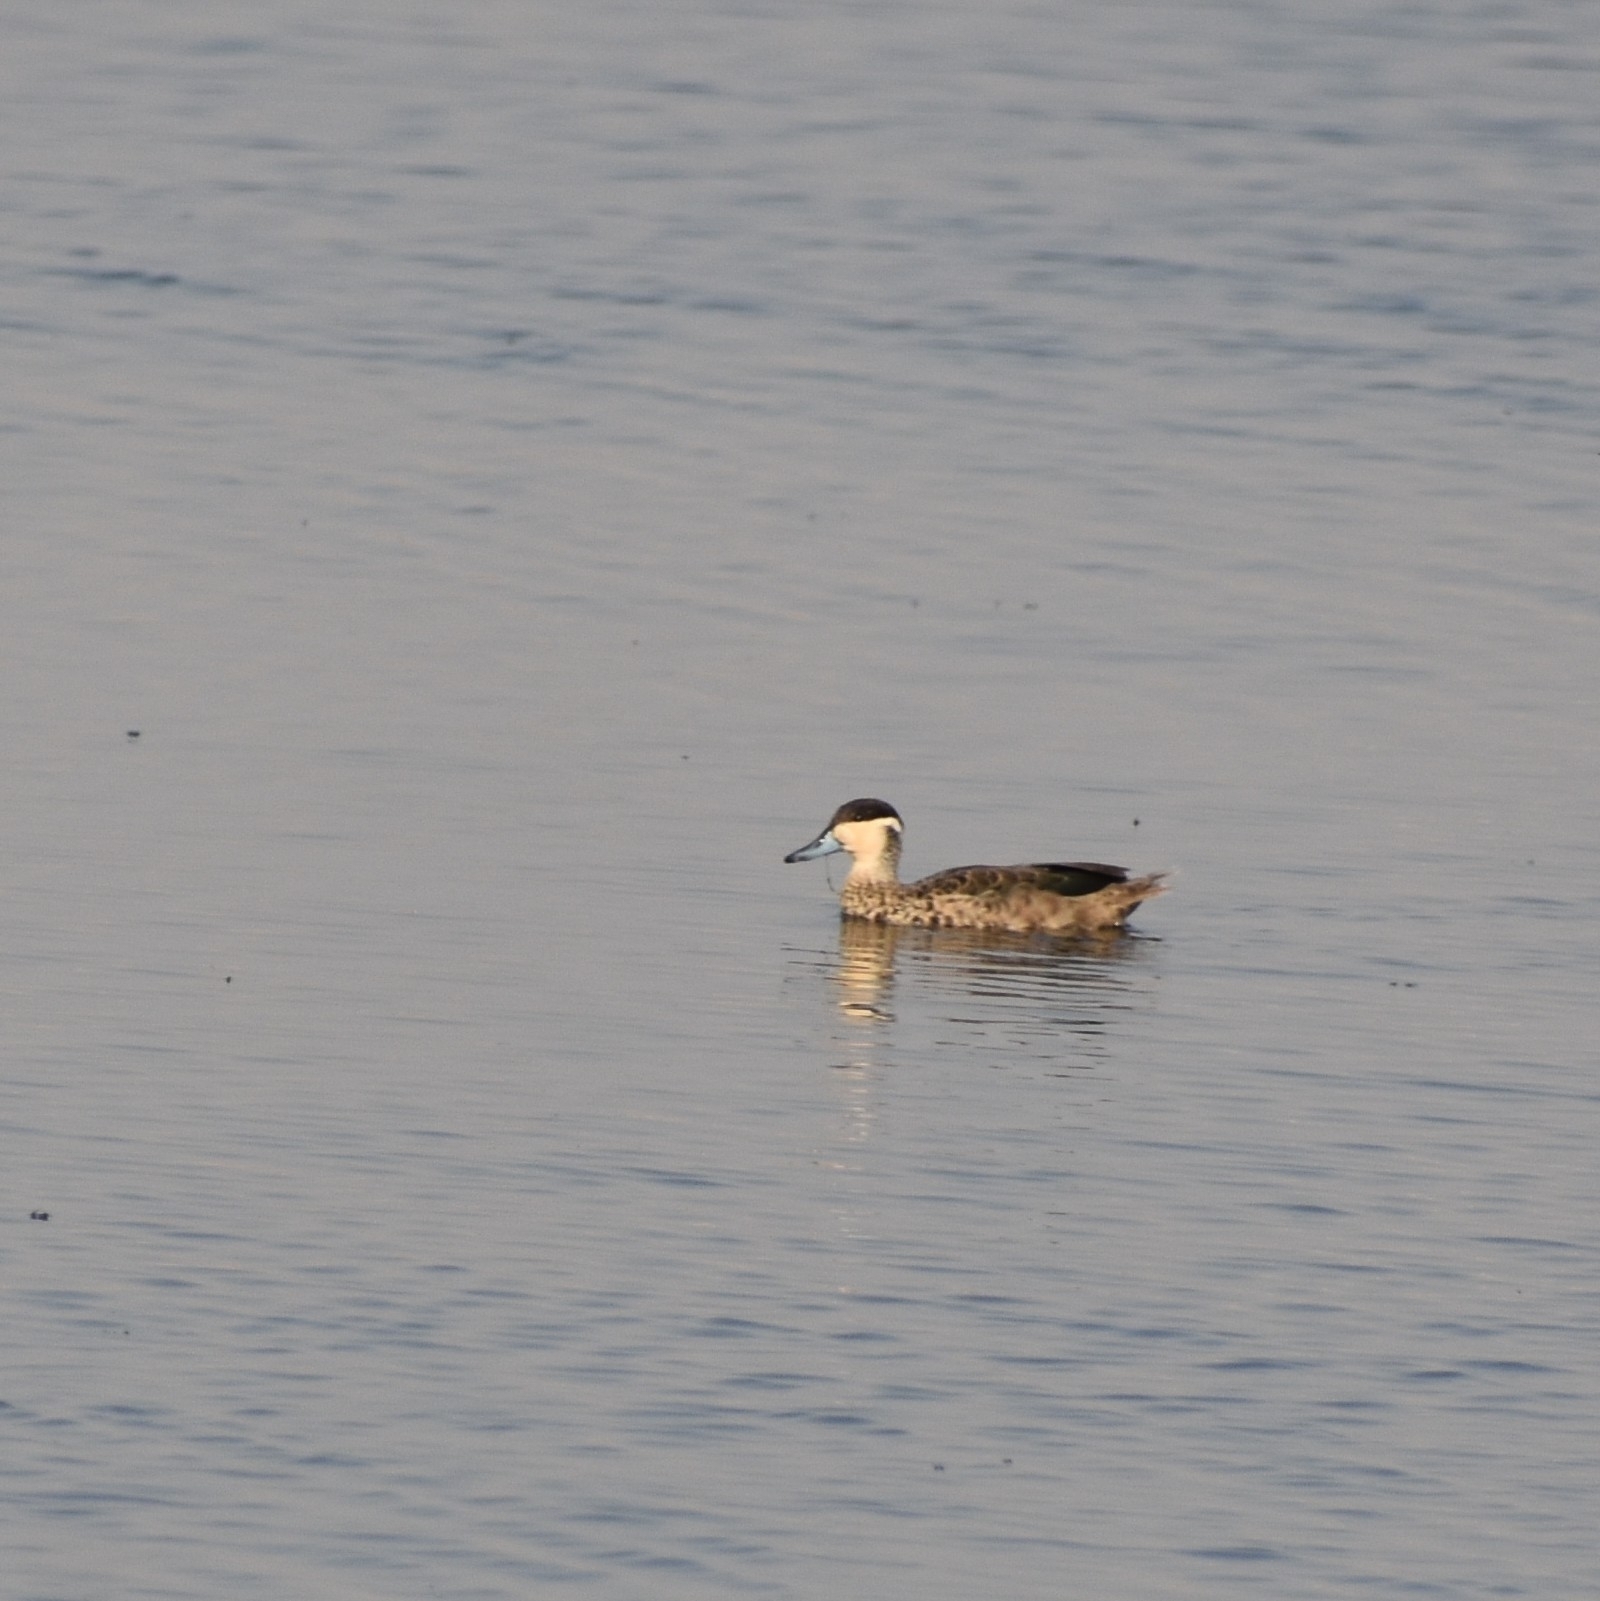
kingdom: Animalia
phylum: Chordata
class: Aves
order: Anseriformes
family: Anatidae
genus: Spatula
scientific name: Spatula hottentota
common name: Blue-billed teal
